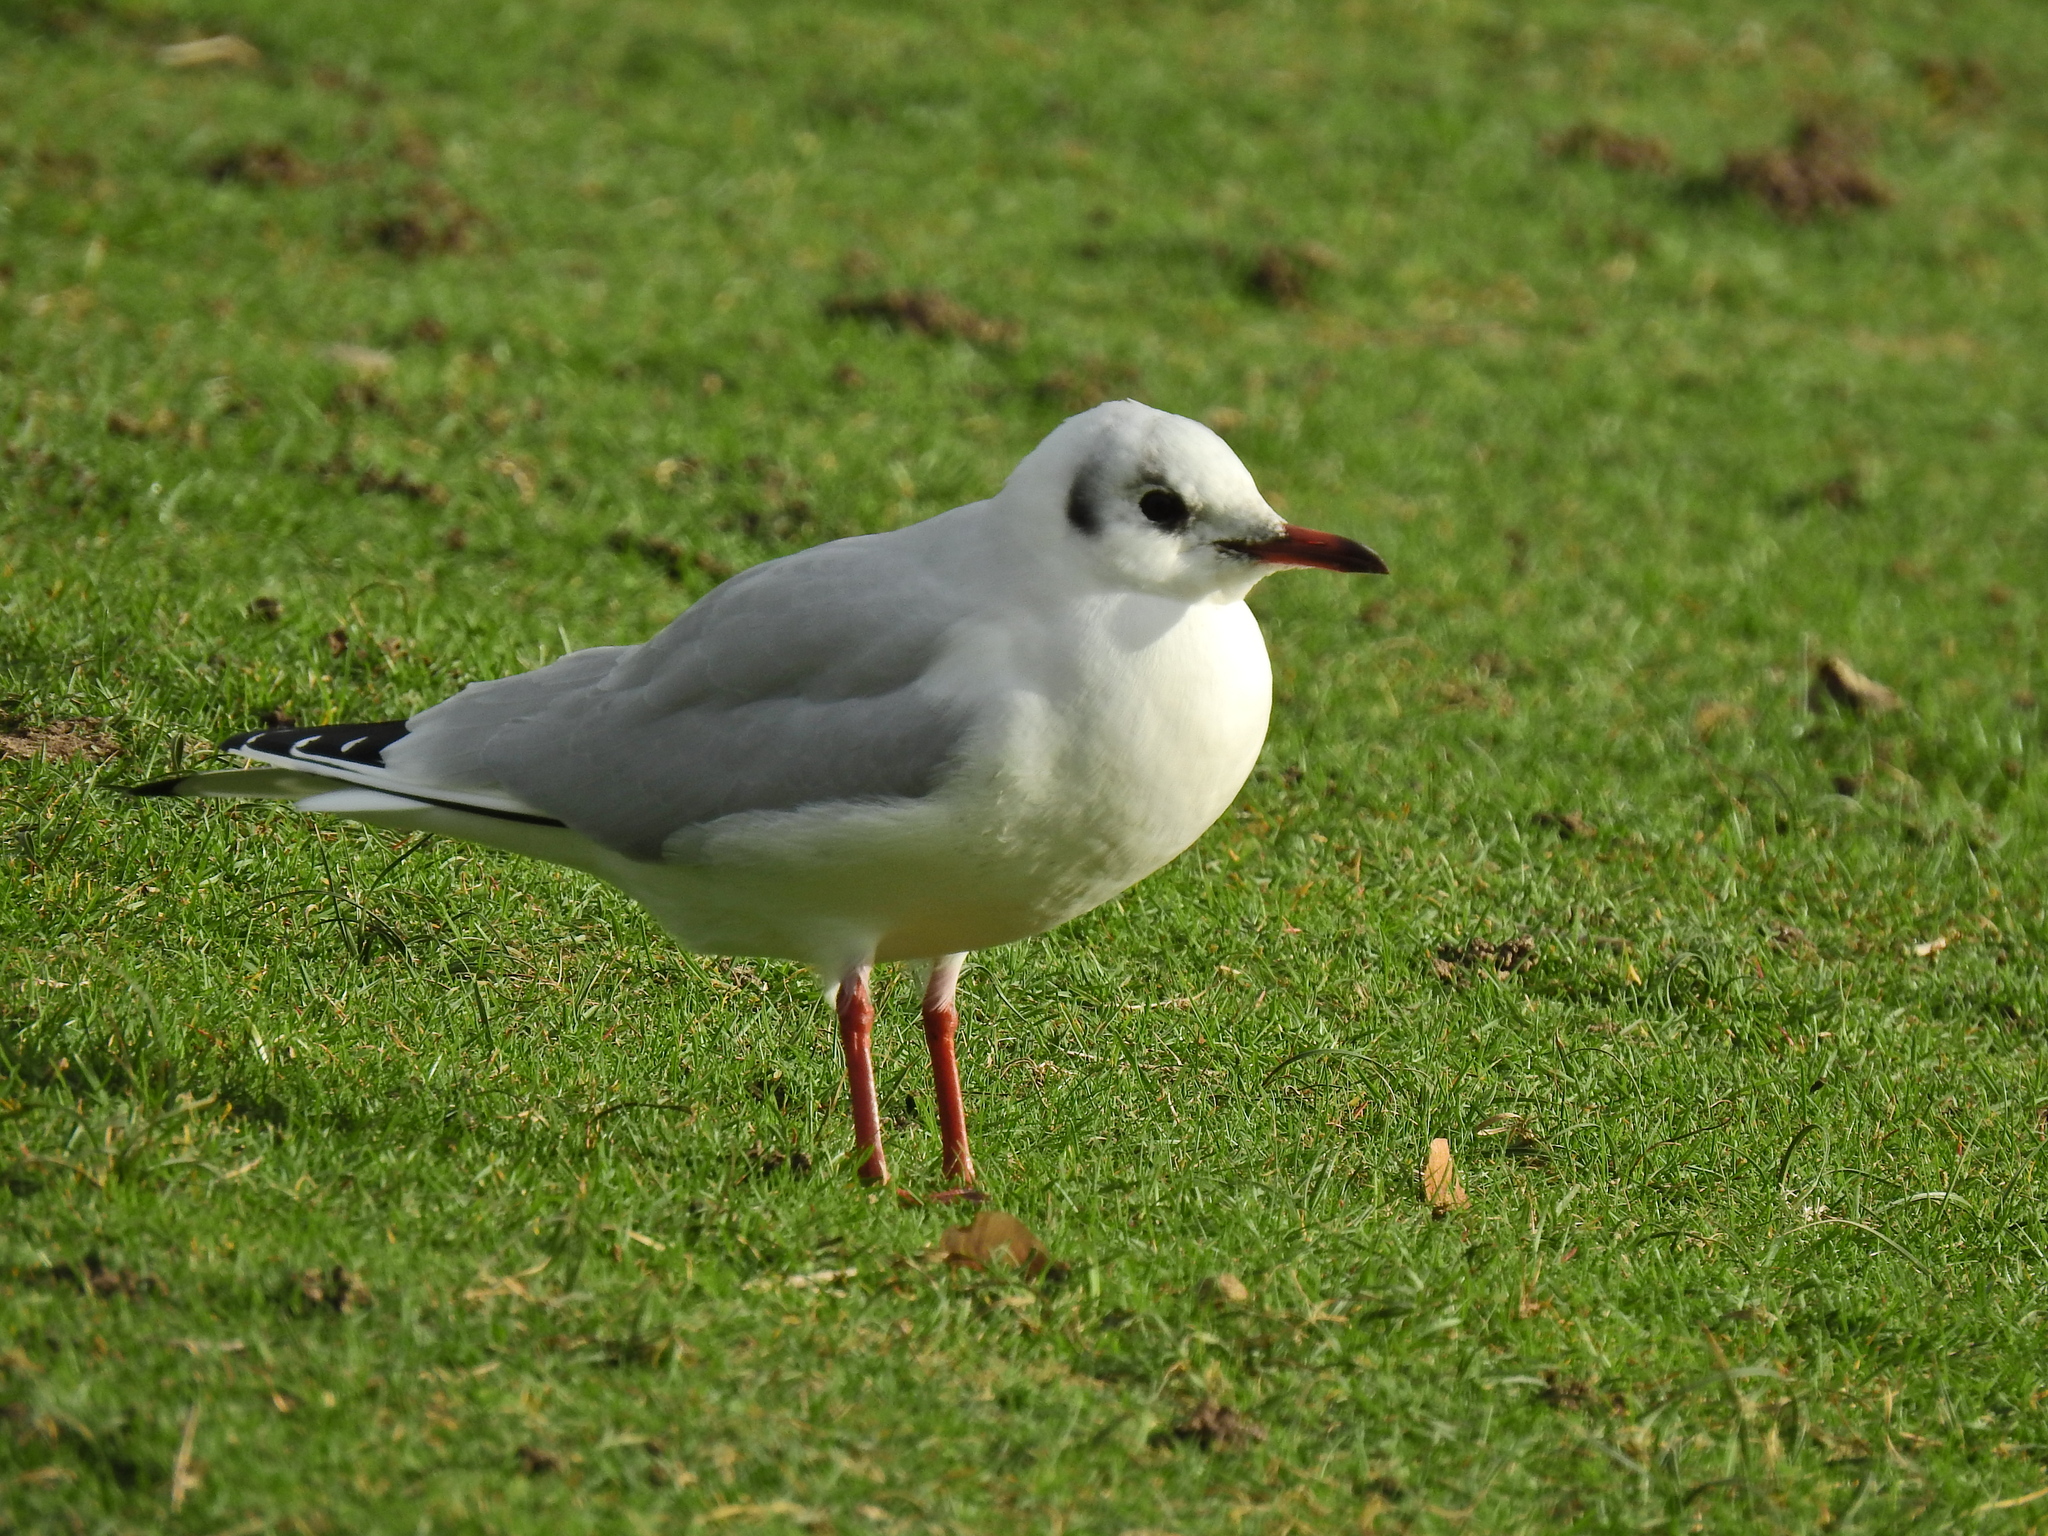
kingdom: Animalia
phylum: Chordata
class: Aves
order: Charadriiformes
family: Laridae
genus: Chroicocephalus
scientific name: Chroicocephalus ridibundus
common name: Black-headed gull
